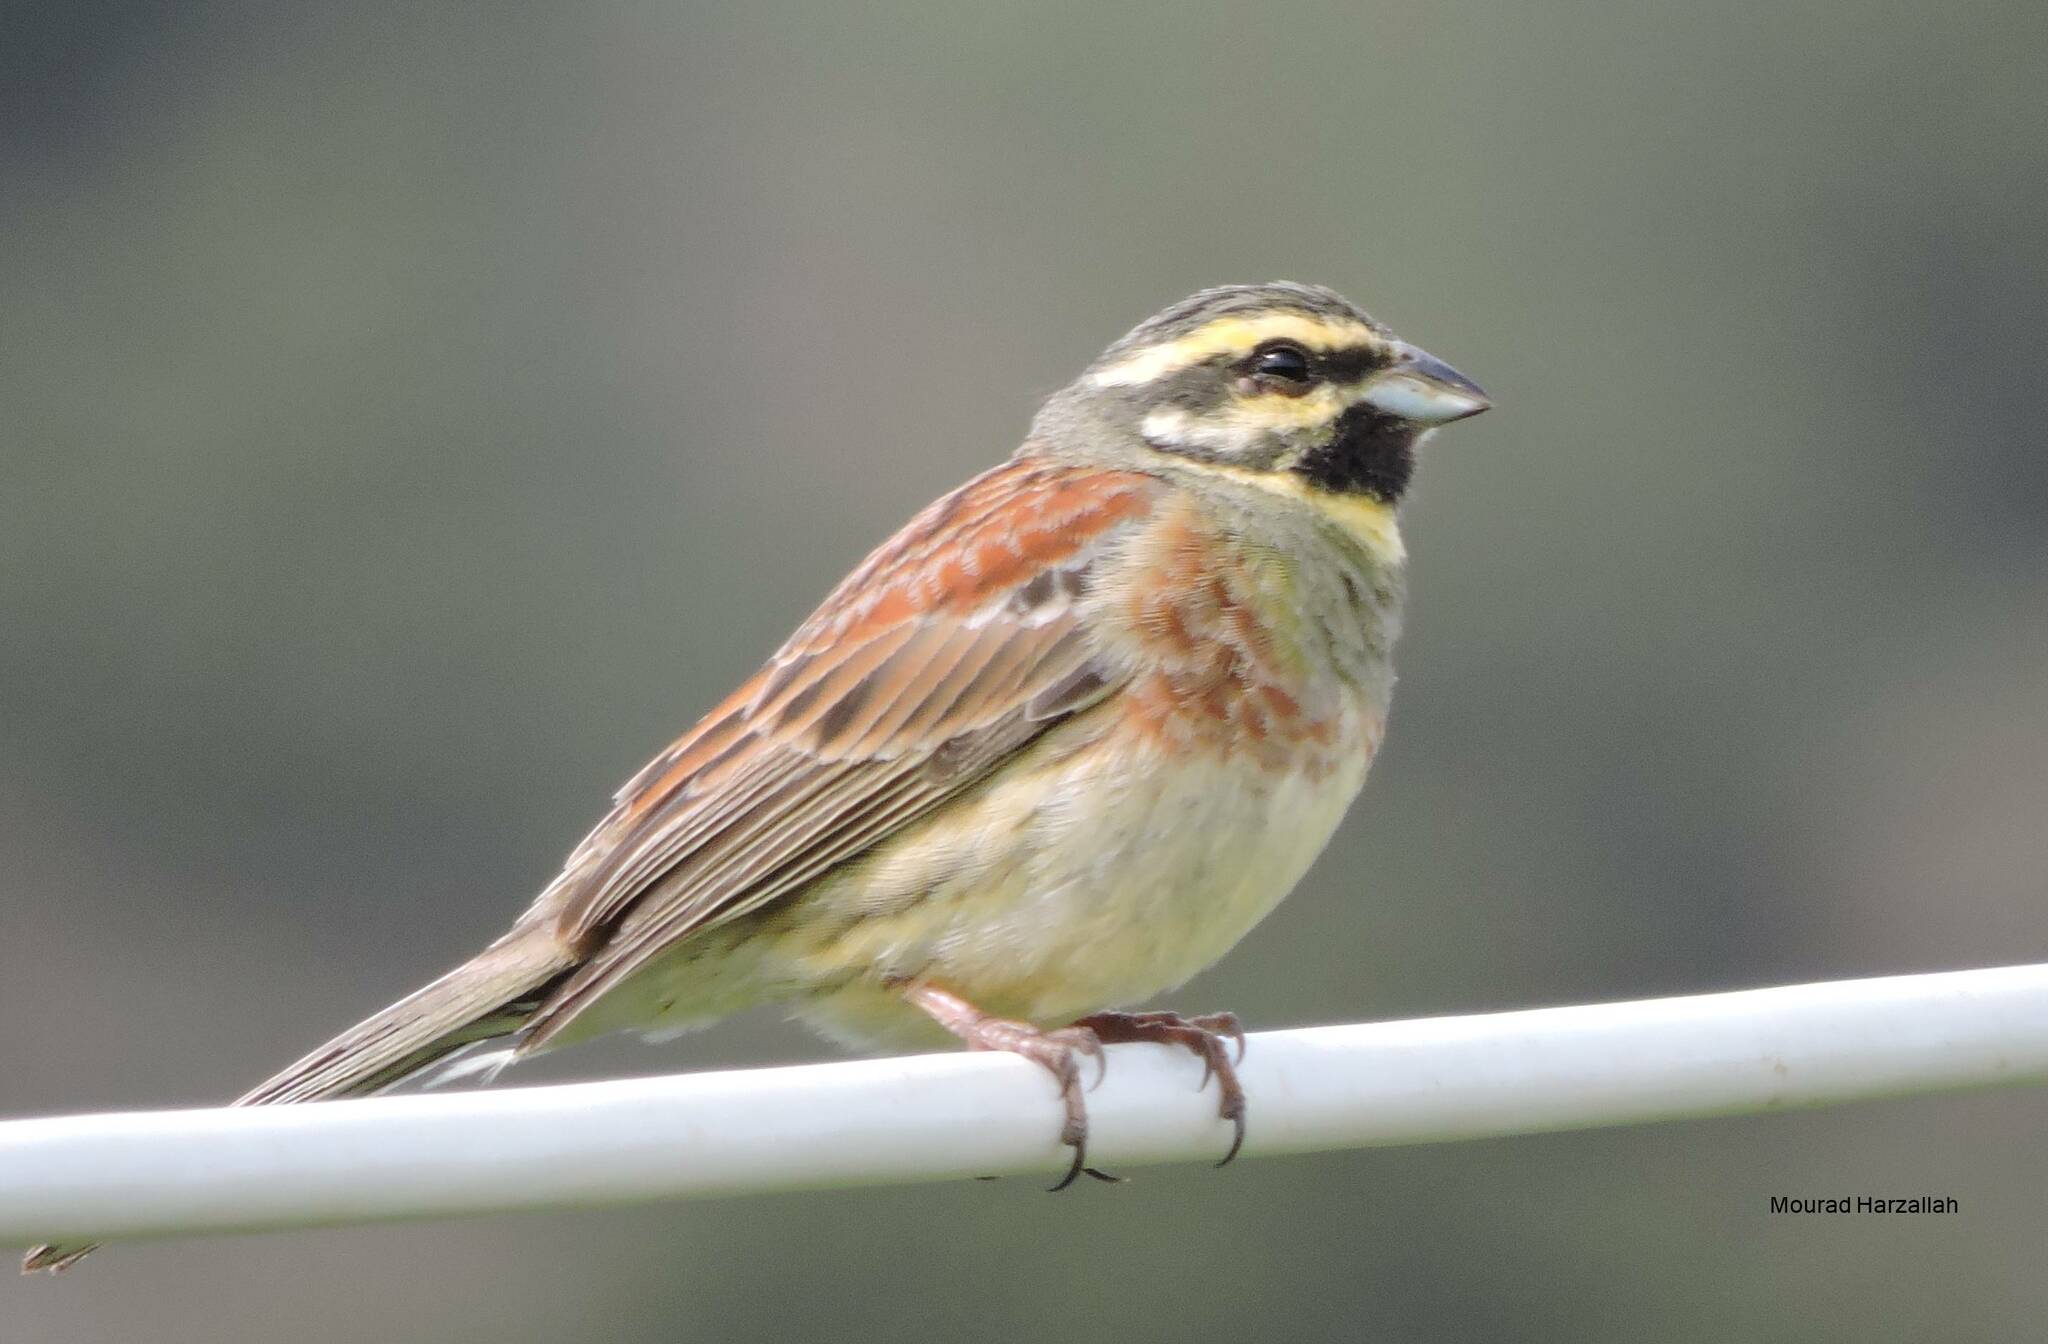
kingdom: Animalia
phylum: Chordata
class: Aves
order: Passeriformes
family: Emberizidae
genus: Emberiza
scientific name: Emberiza cirlus
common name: Cirl bunting
